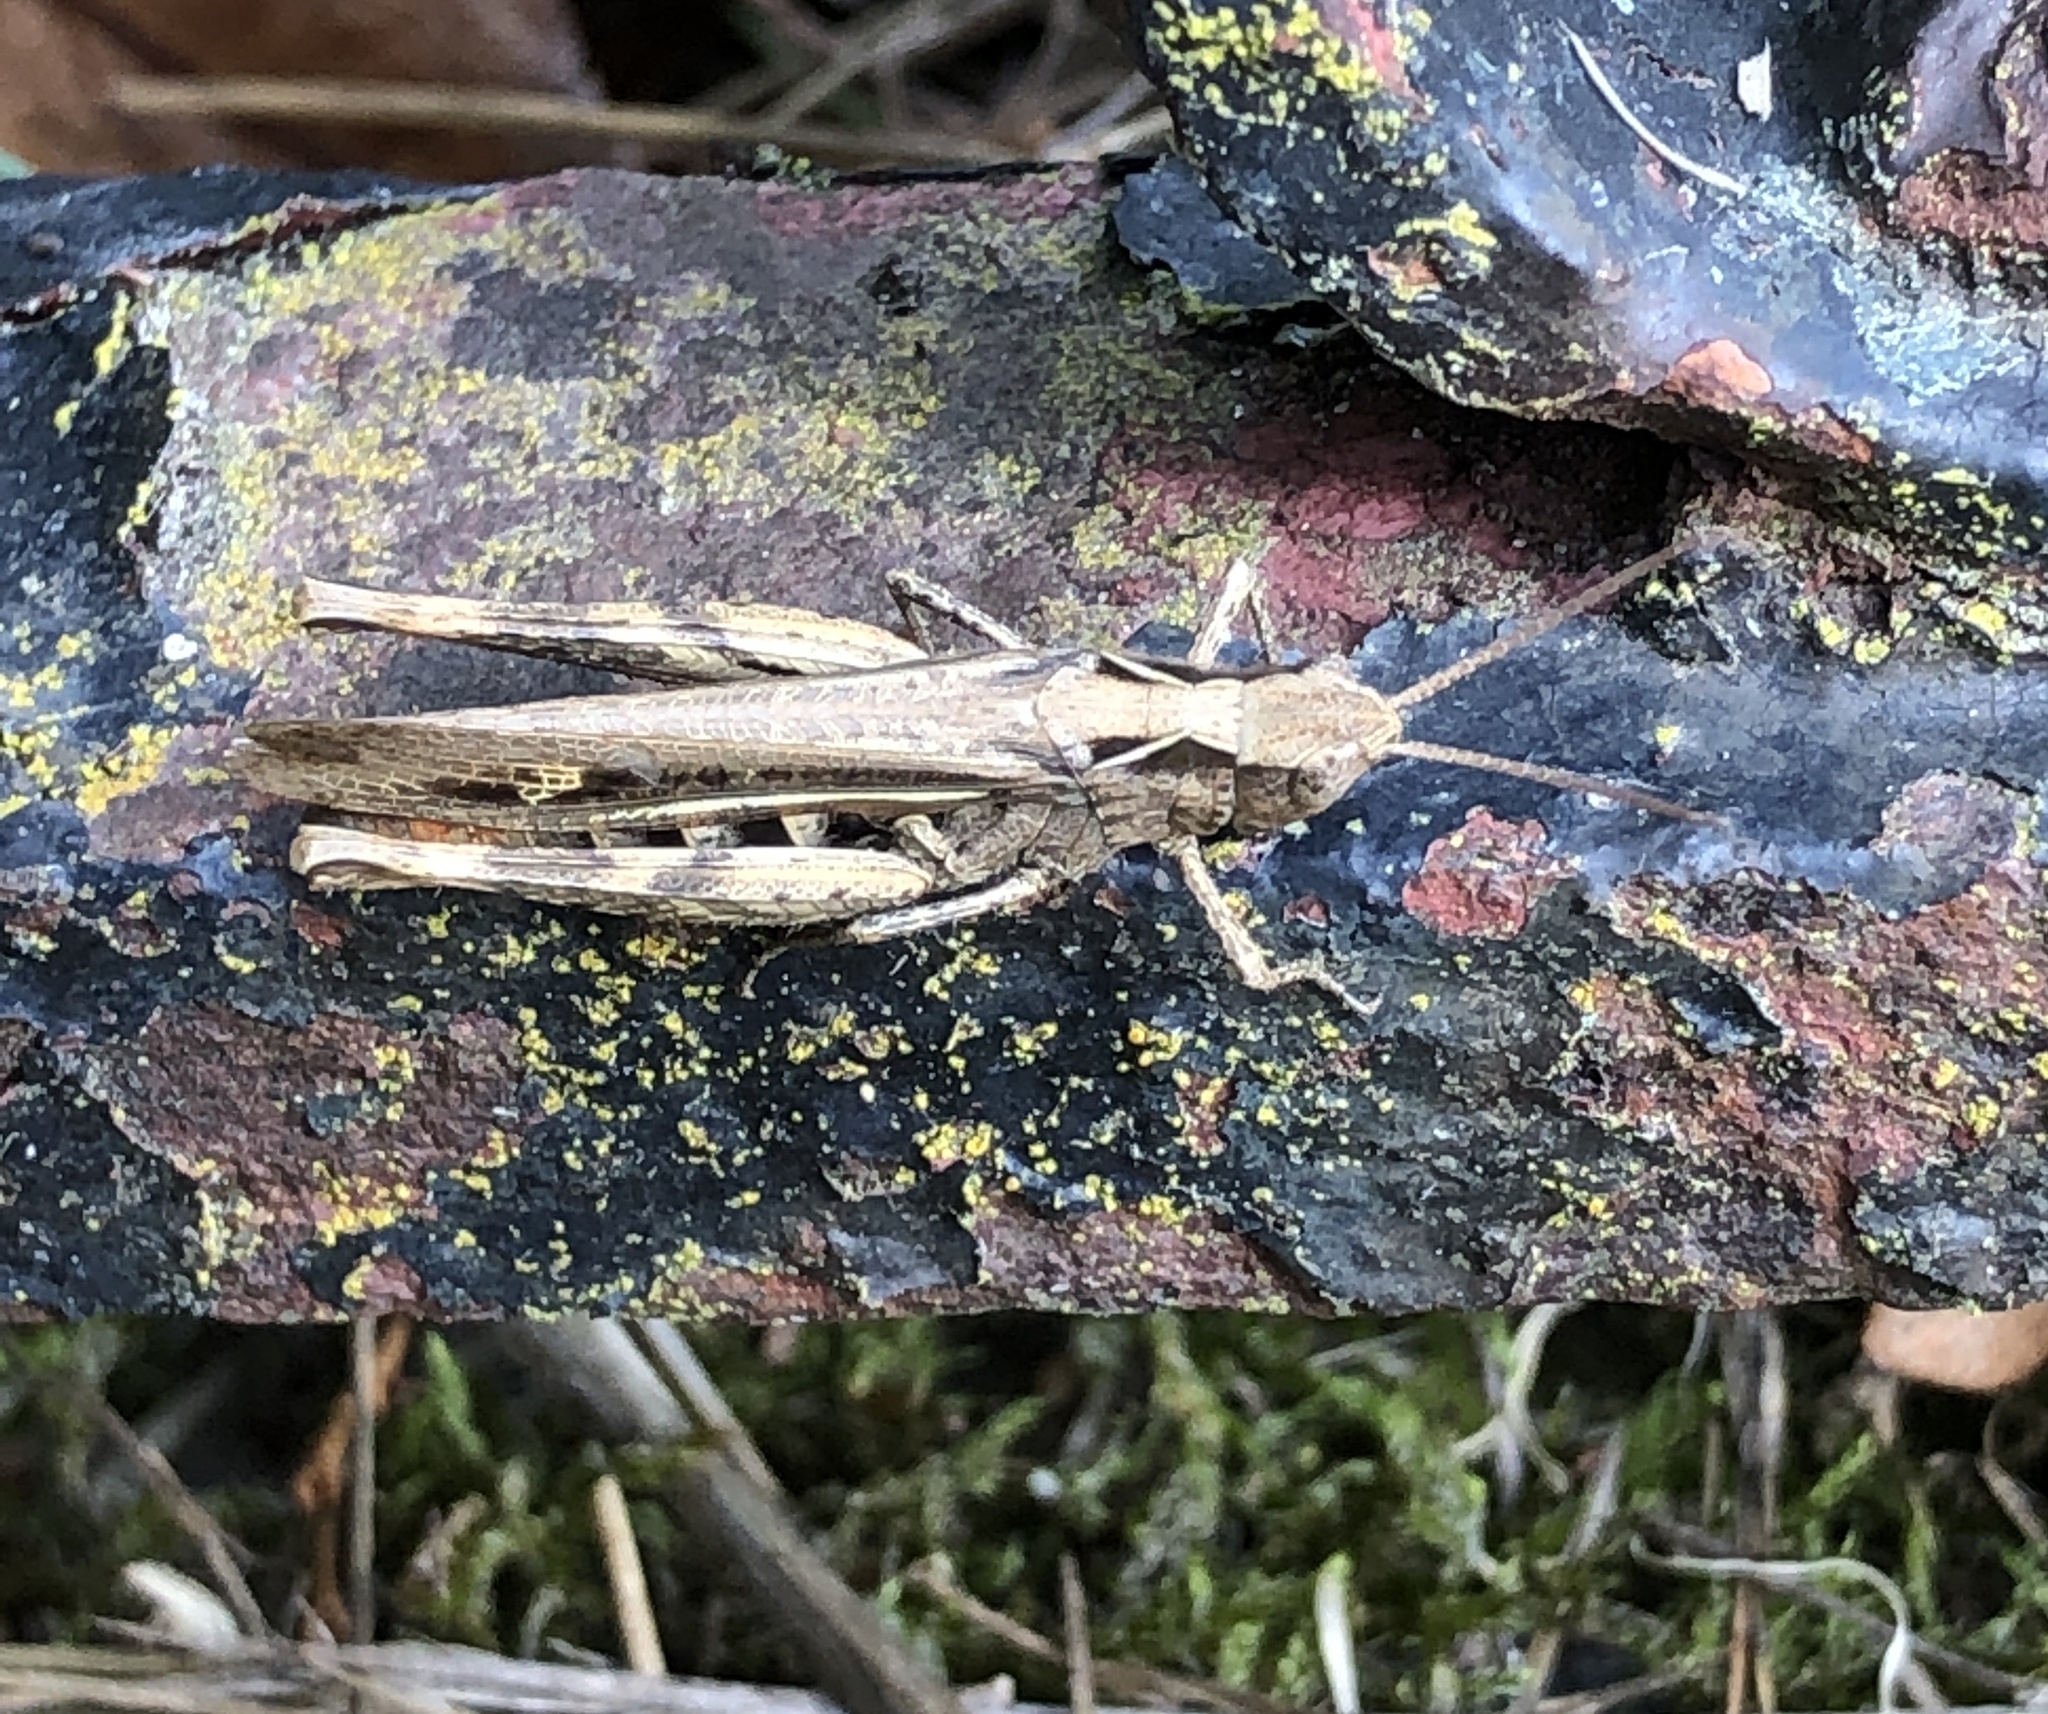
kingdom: Animalia
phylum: Arthropoda
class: Insecta
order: Orthoptera
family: Acrididae
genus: Chorthippus
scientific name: Chorthippus brunneus
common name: Field grasshopper
